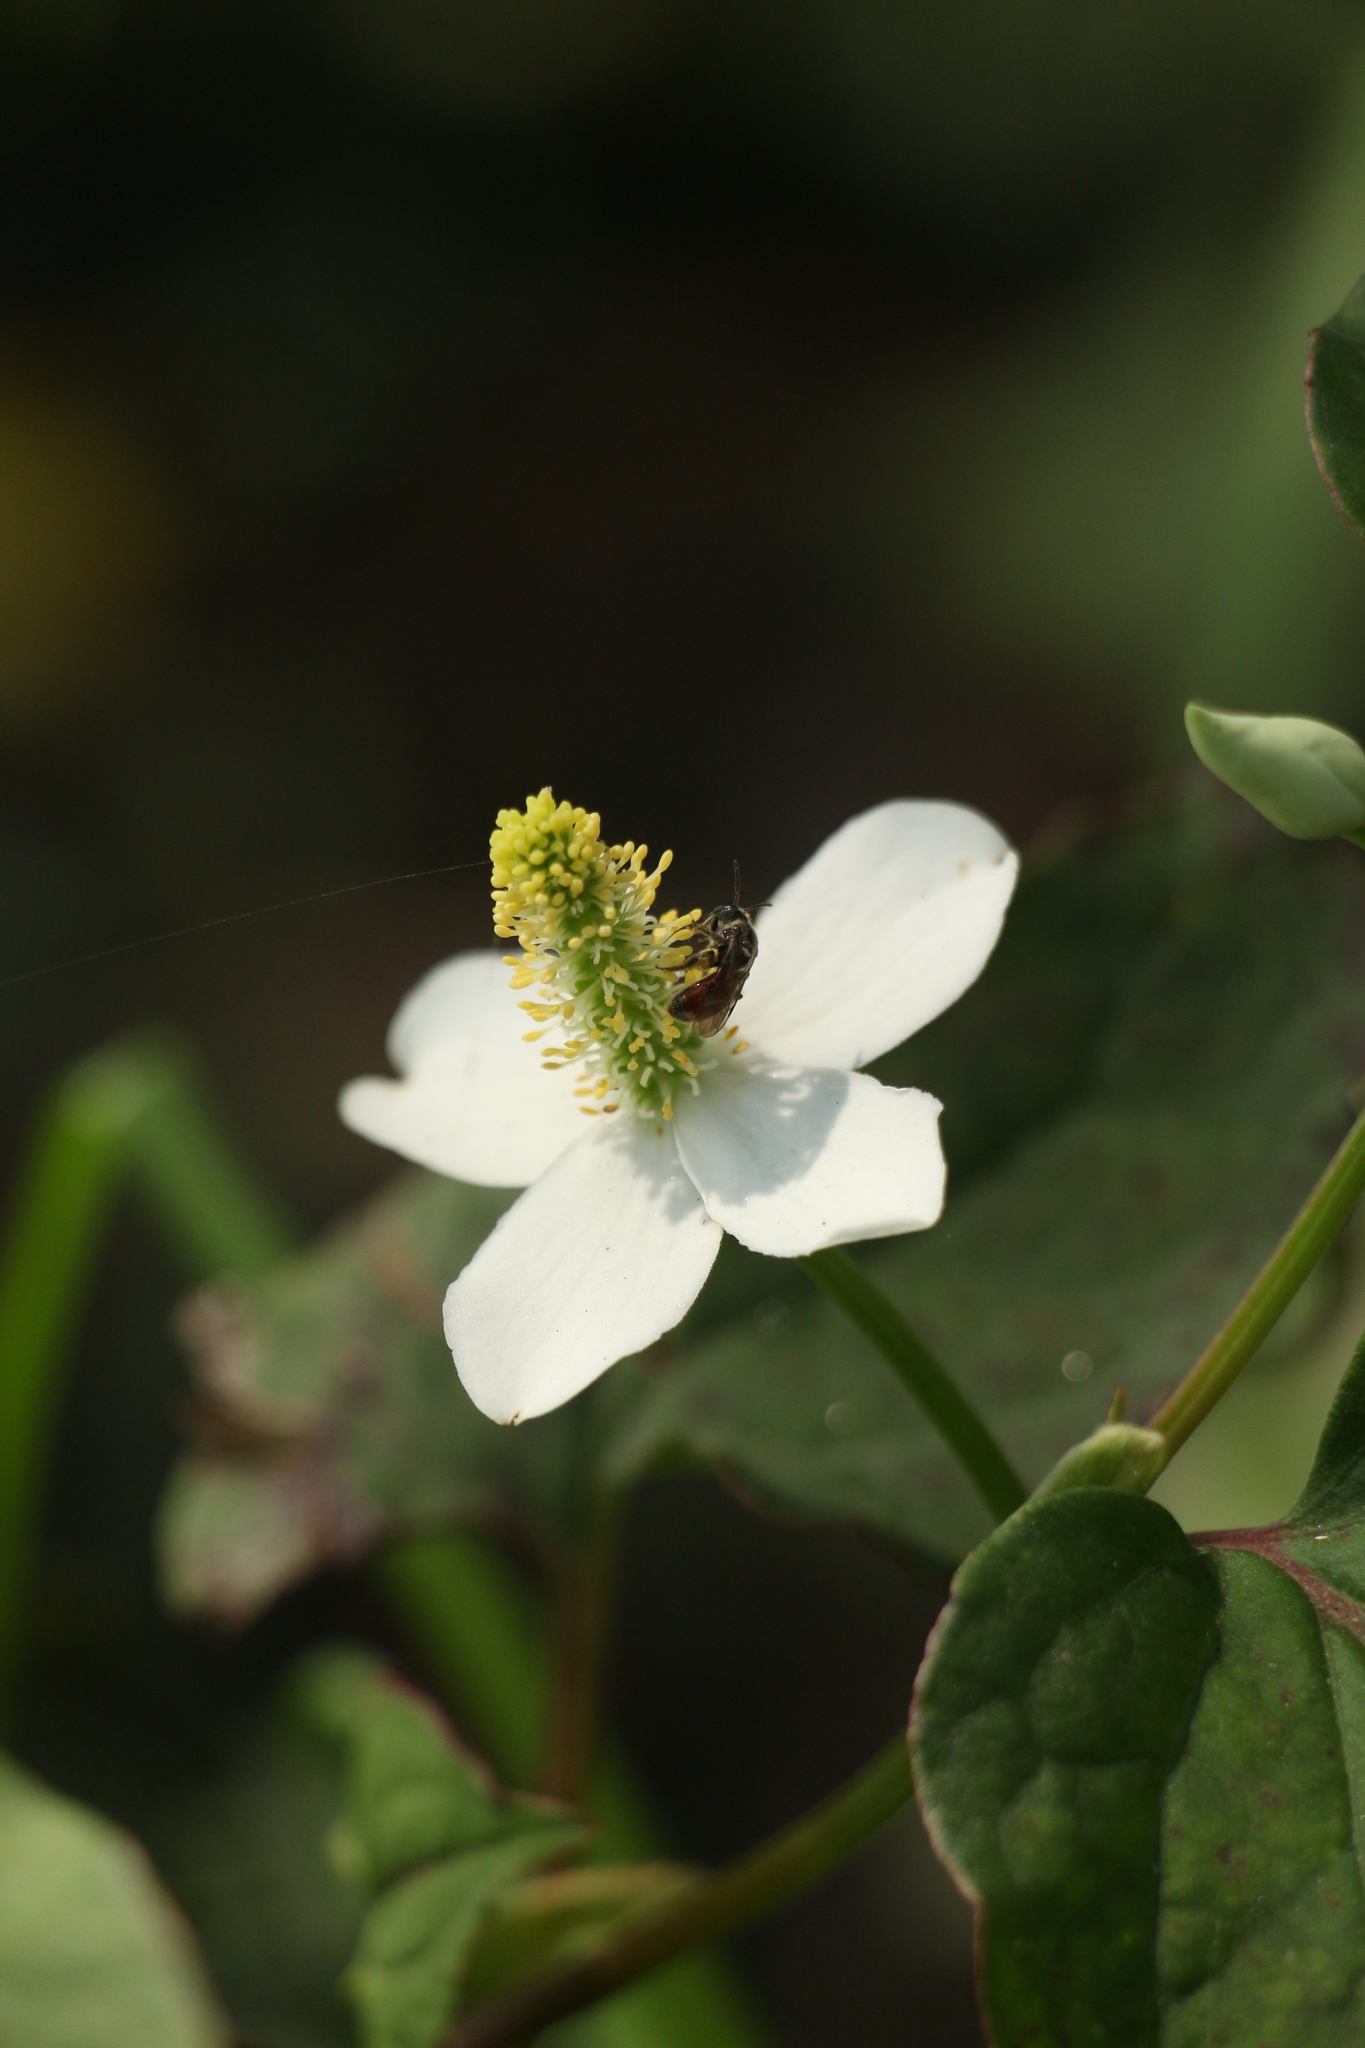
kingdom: Plantae
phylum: Tracheophyta
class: Magnoliopsida
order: Piperales
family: Saururaceae
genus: Houttuynia
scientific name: Houttuynia cordata
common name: Chameleon
